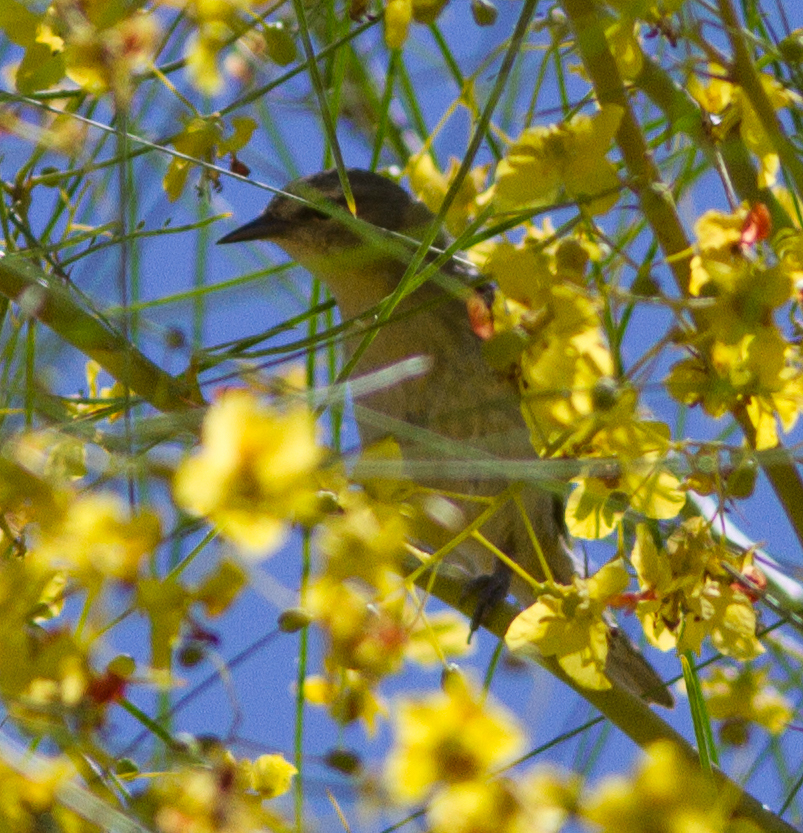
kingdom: Animalia
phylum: Chordata
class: Aves
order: Passeriformes
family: Parulidae
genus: Leiothlypis
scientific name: Leiothlypis peregrina
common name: Tennessee warbler
